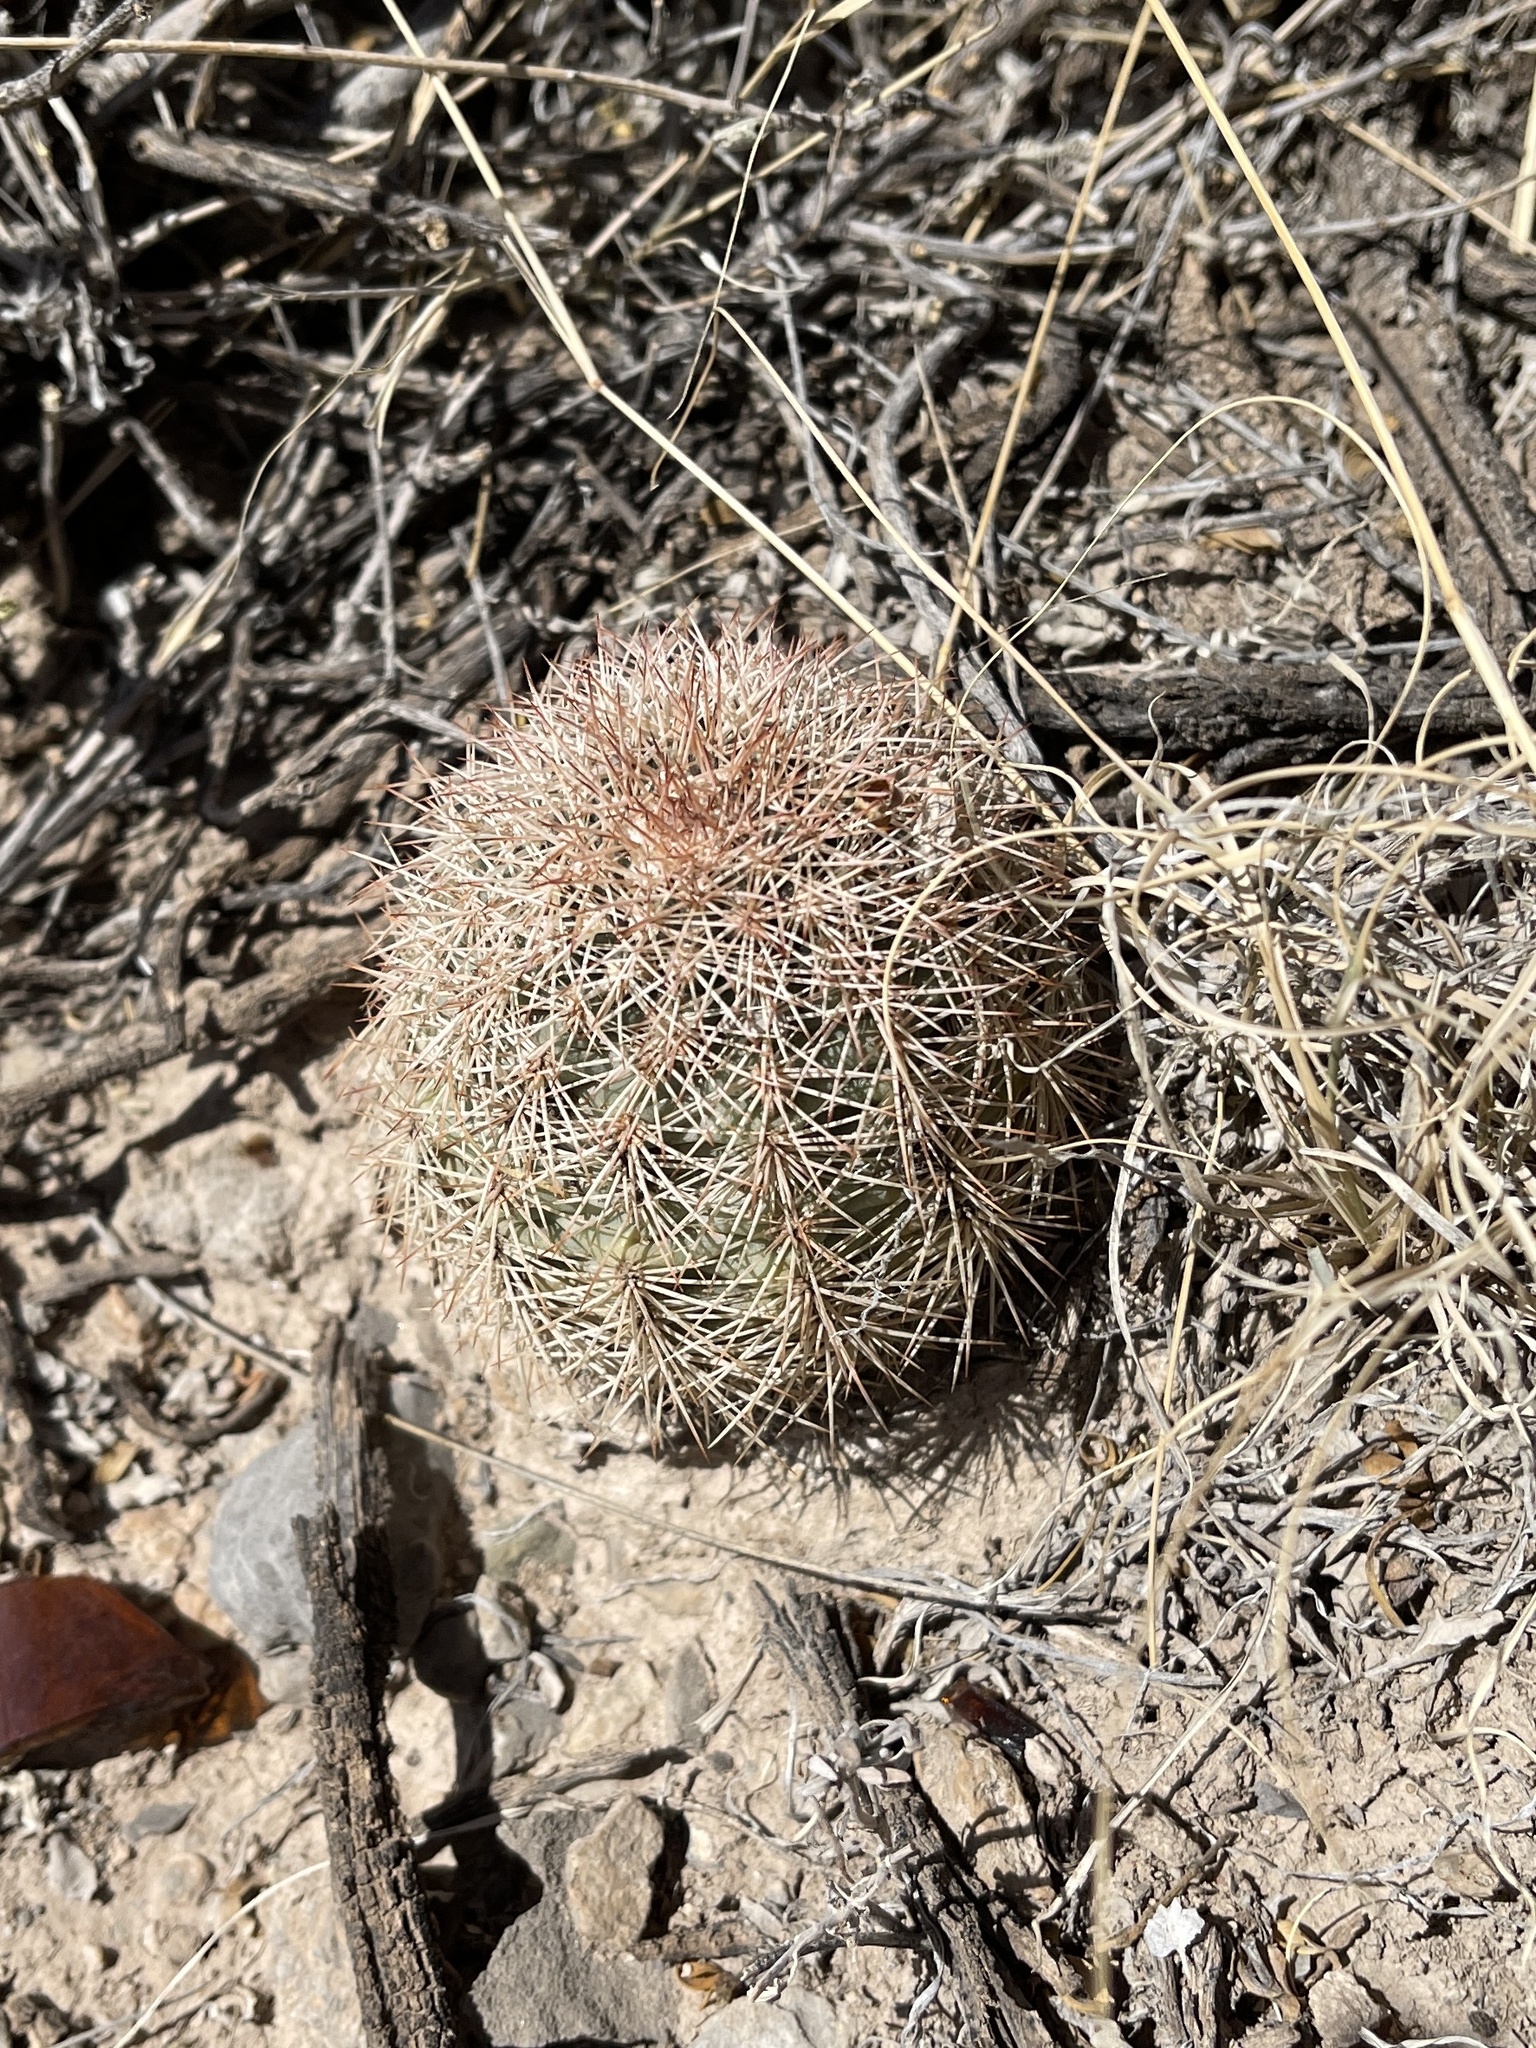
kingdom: Plantae
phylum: Tracheophyta
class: Magnoliopsida
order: Caryophyllales
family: Cactaceae
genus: Echinocereus
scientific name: Echinocereus roetteri
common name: Lloyd's hedgehog cactus
